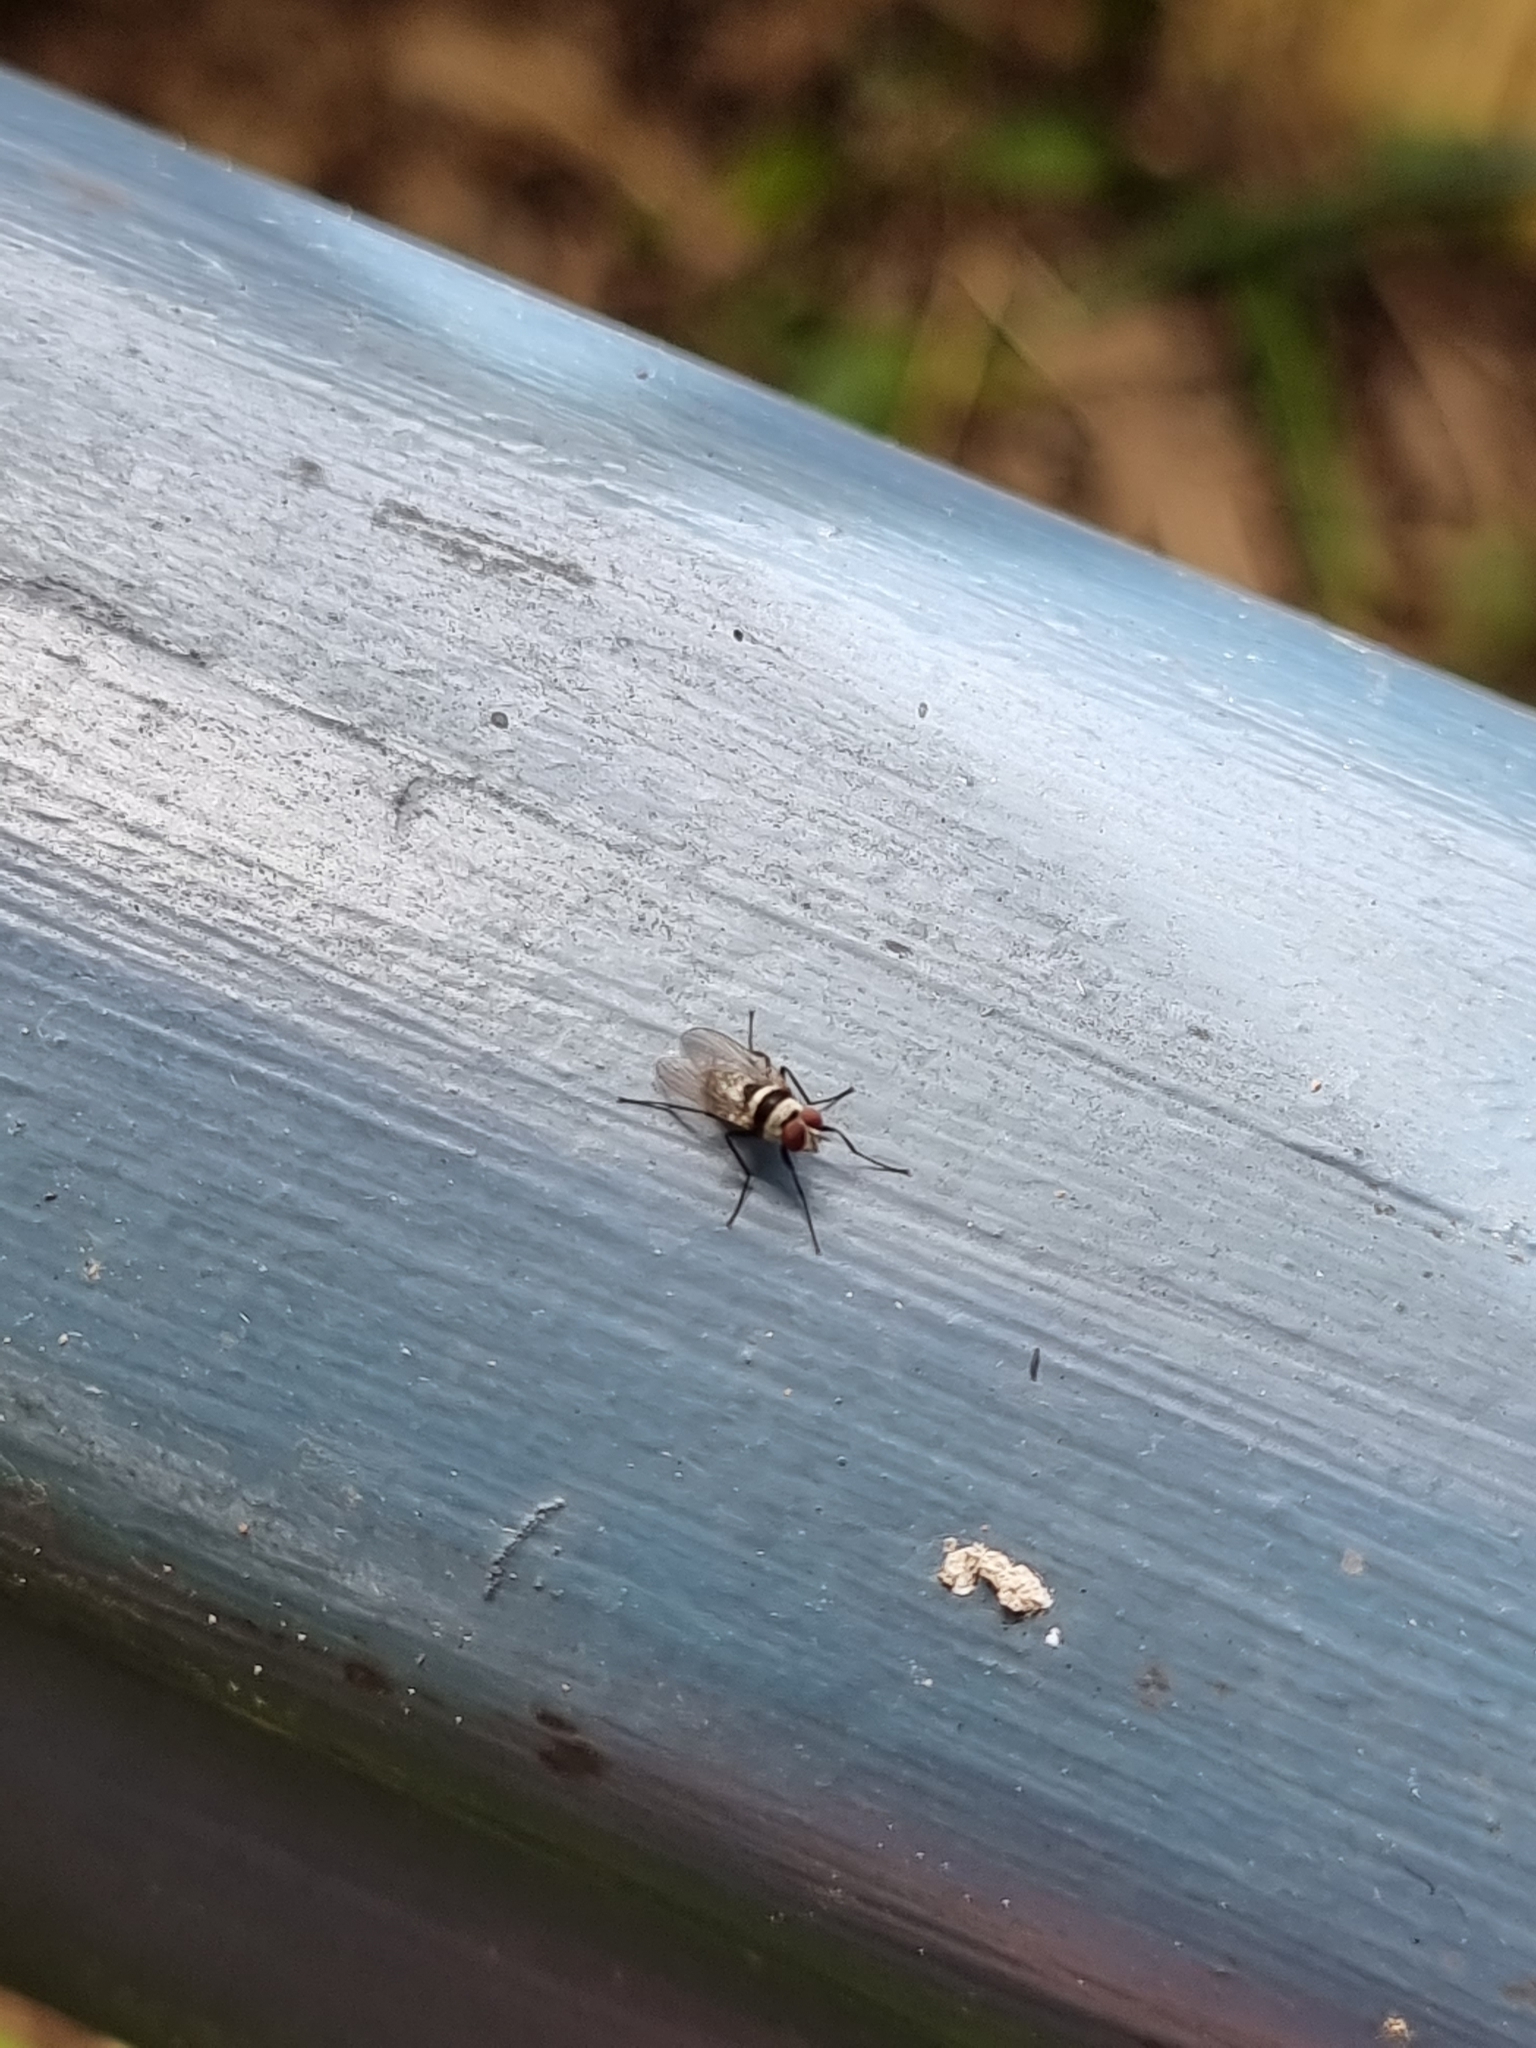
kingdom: Animalia
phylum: Arthropoda
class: Insecta
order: Diptera
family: Anthomyiidae
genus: Anthomyia
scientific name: Anthomyia medialis
